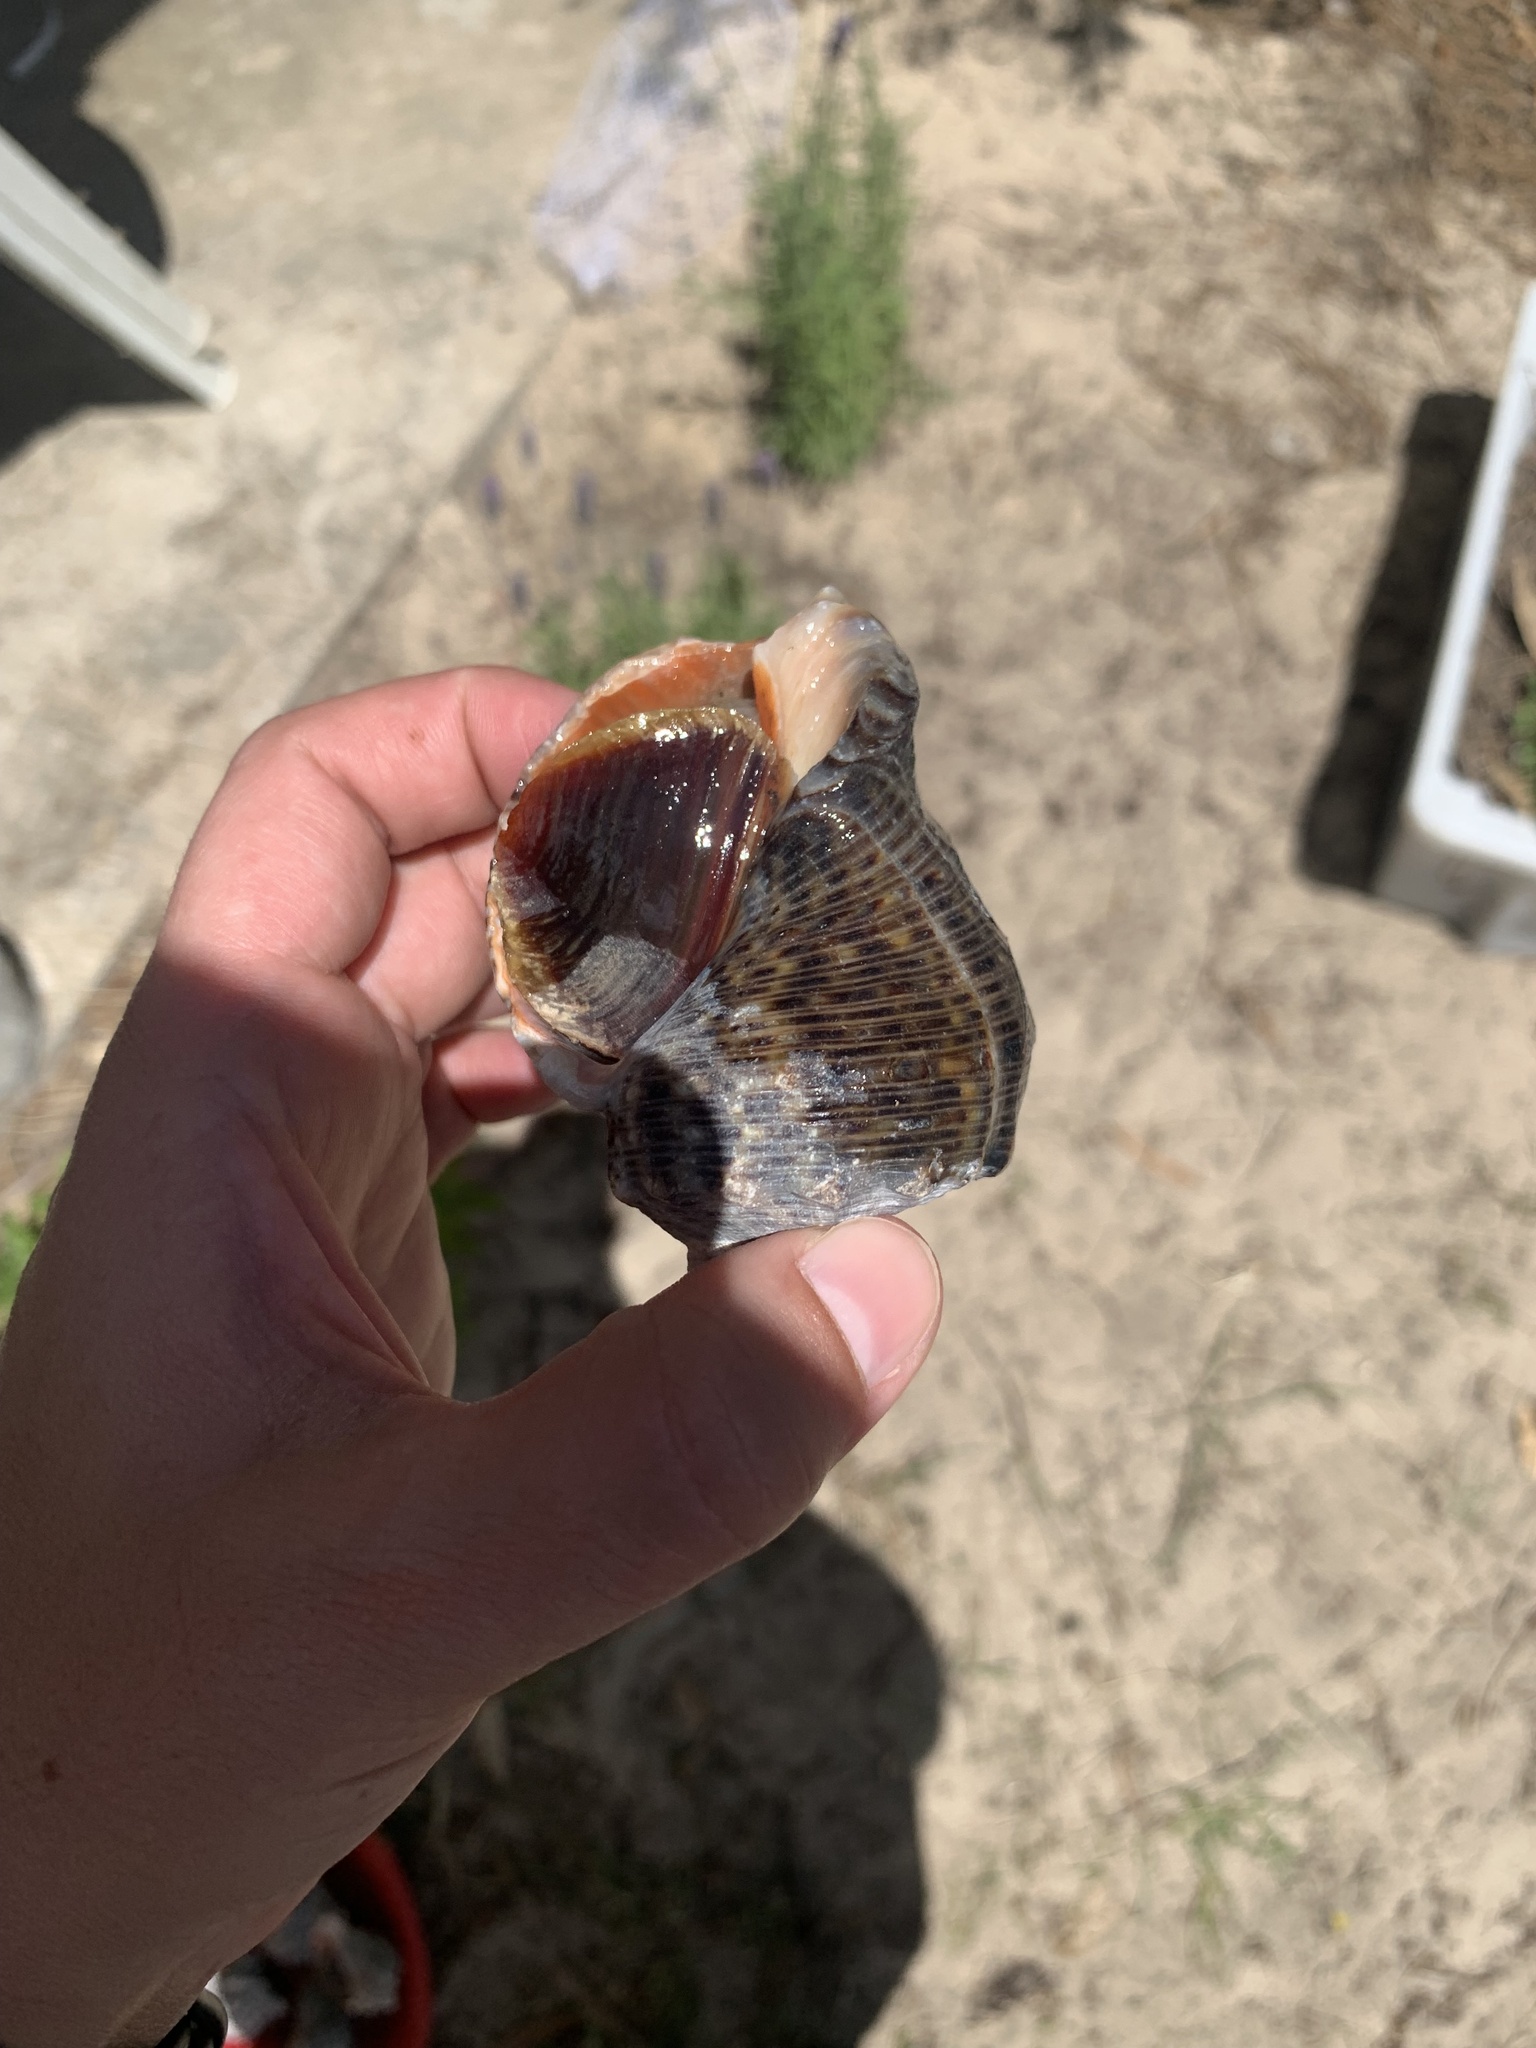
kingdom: Animalia
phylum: Mollusca
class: Gastropoda
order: Neogastropoda
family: Muricidae
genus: Rapana
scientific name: Rapana venosa
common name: Veined rapa whelk
